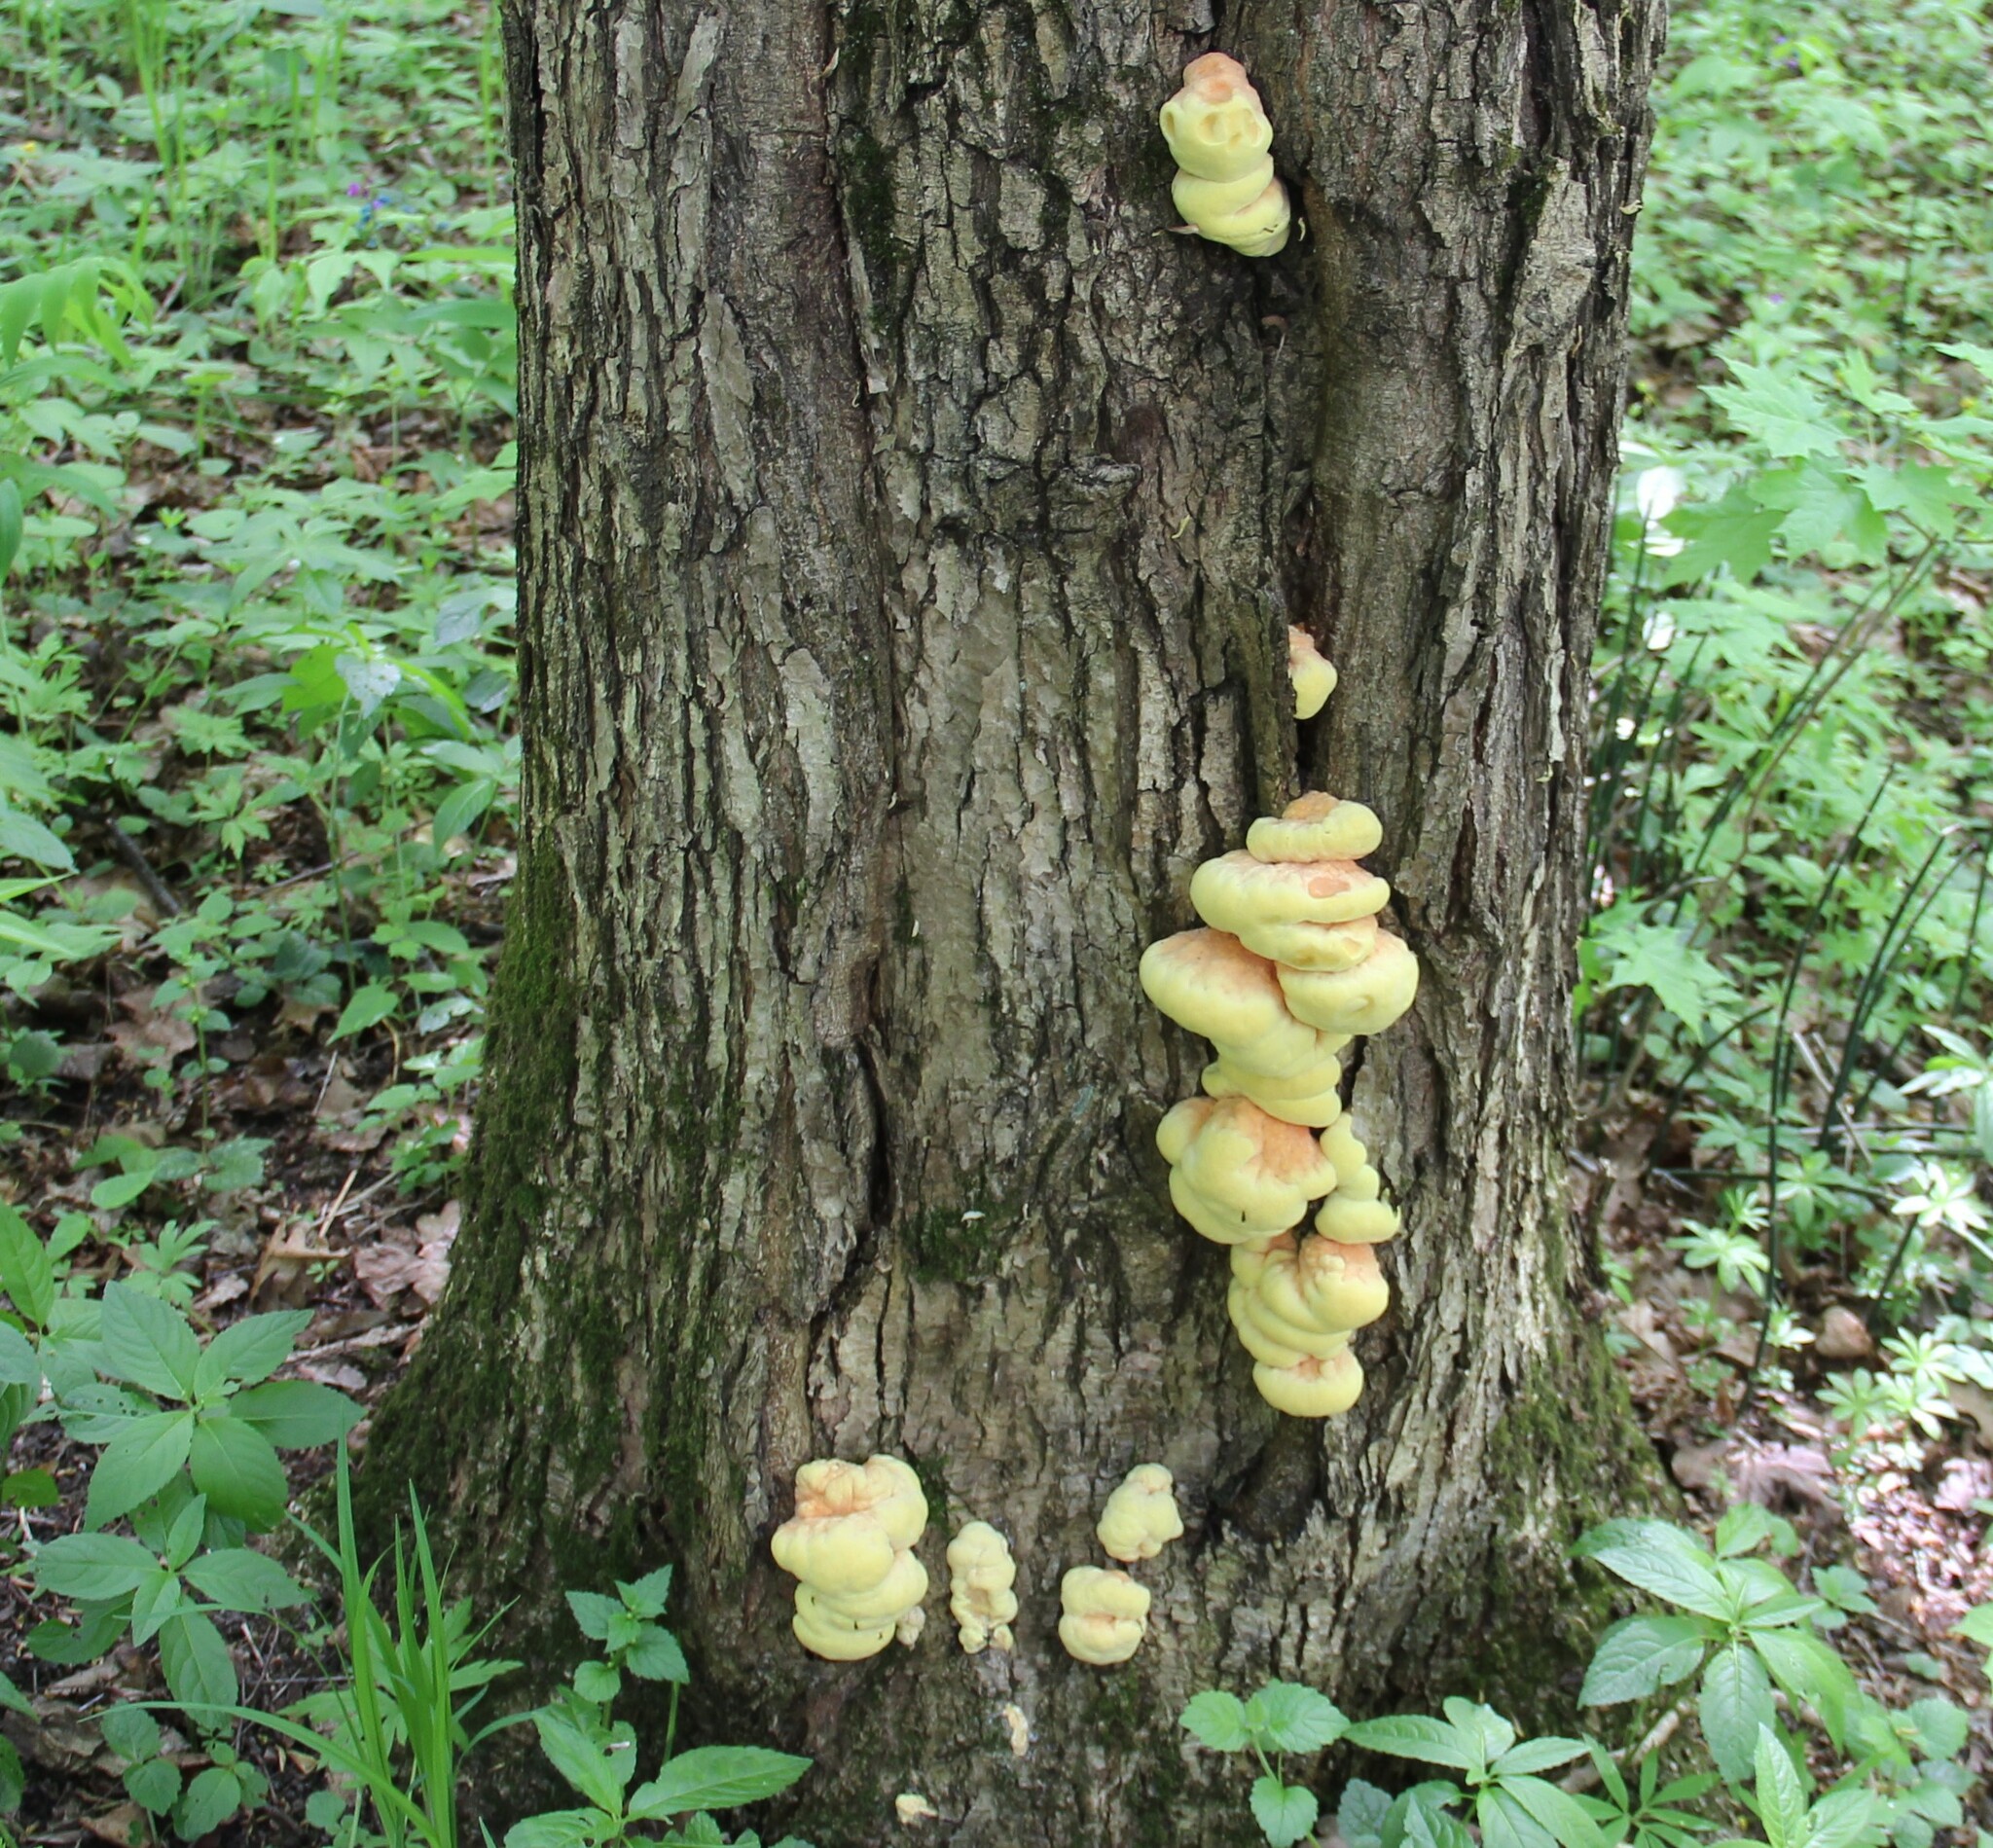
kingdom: Fungi
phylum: Basidiomycota
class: Agaricomycetes
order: Polyporales
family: Laetiporaceae
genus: Laetiporus
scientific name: Laetiporus sulphureus
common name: Chicken of the woods
